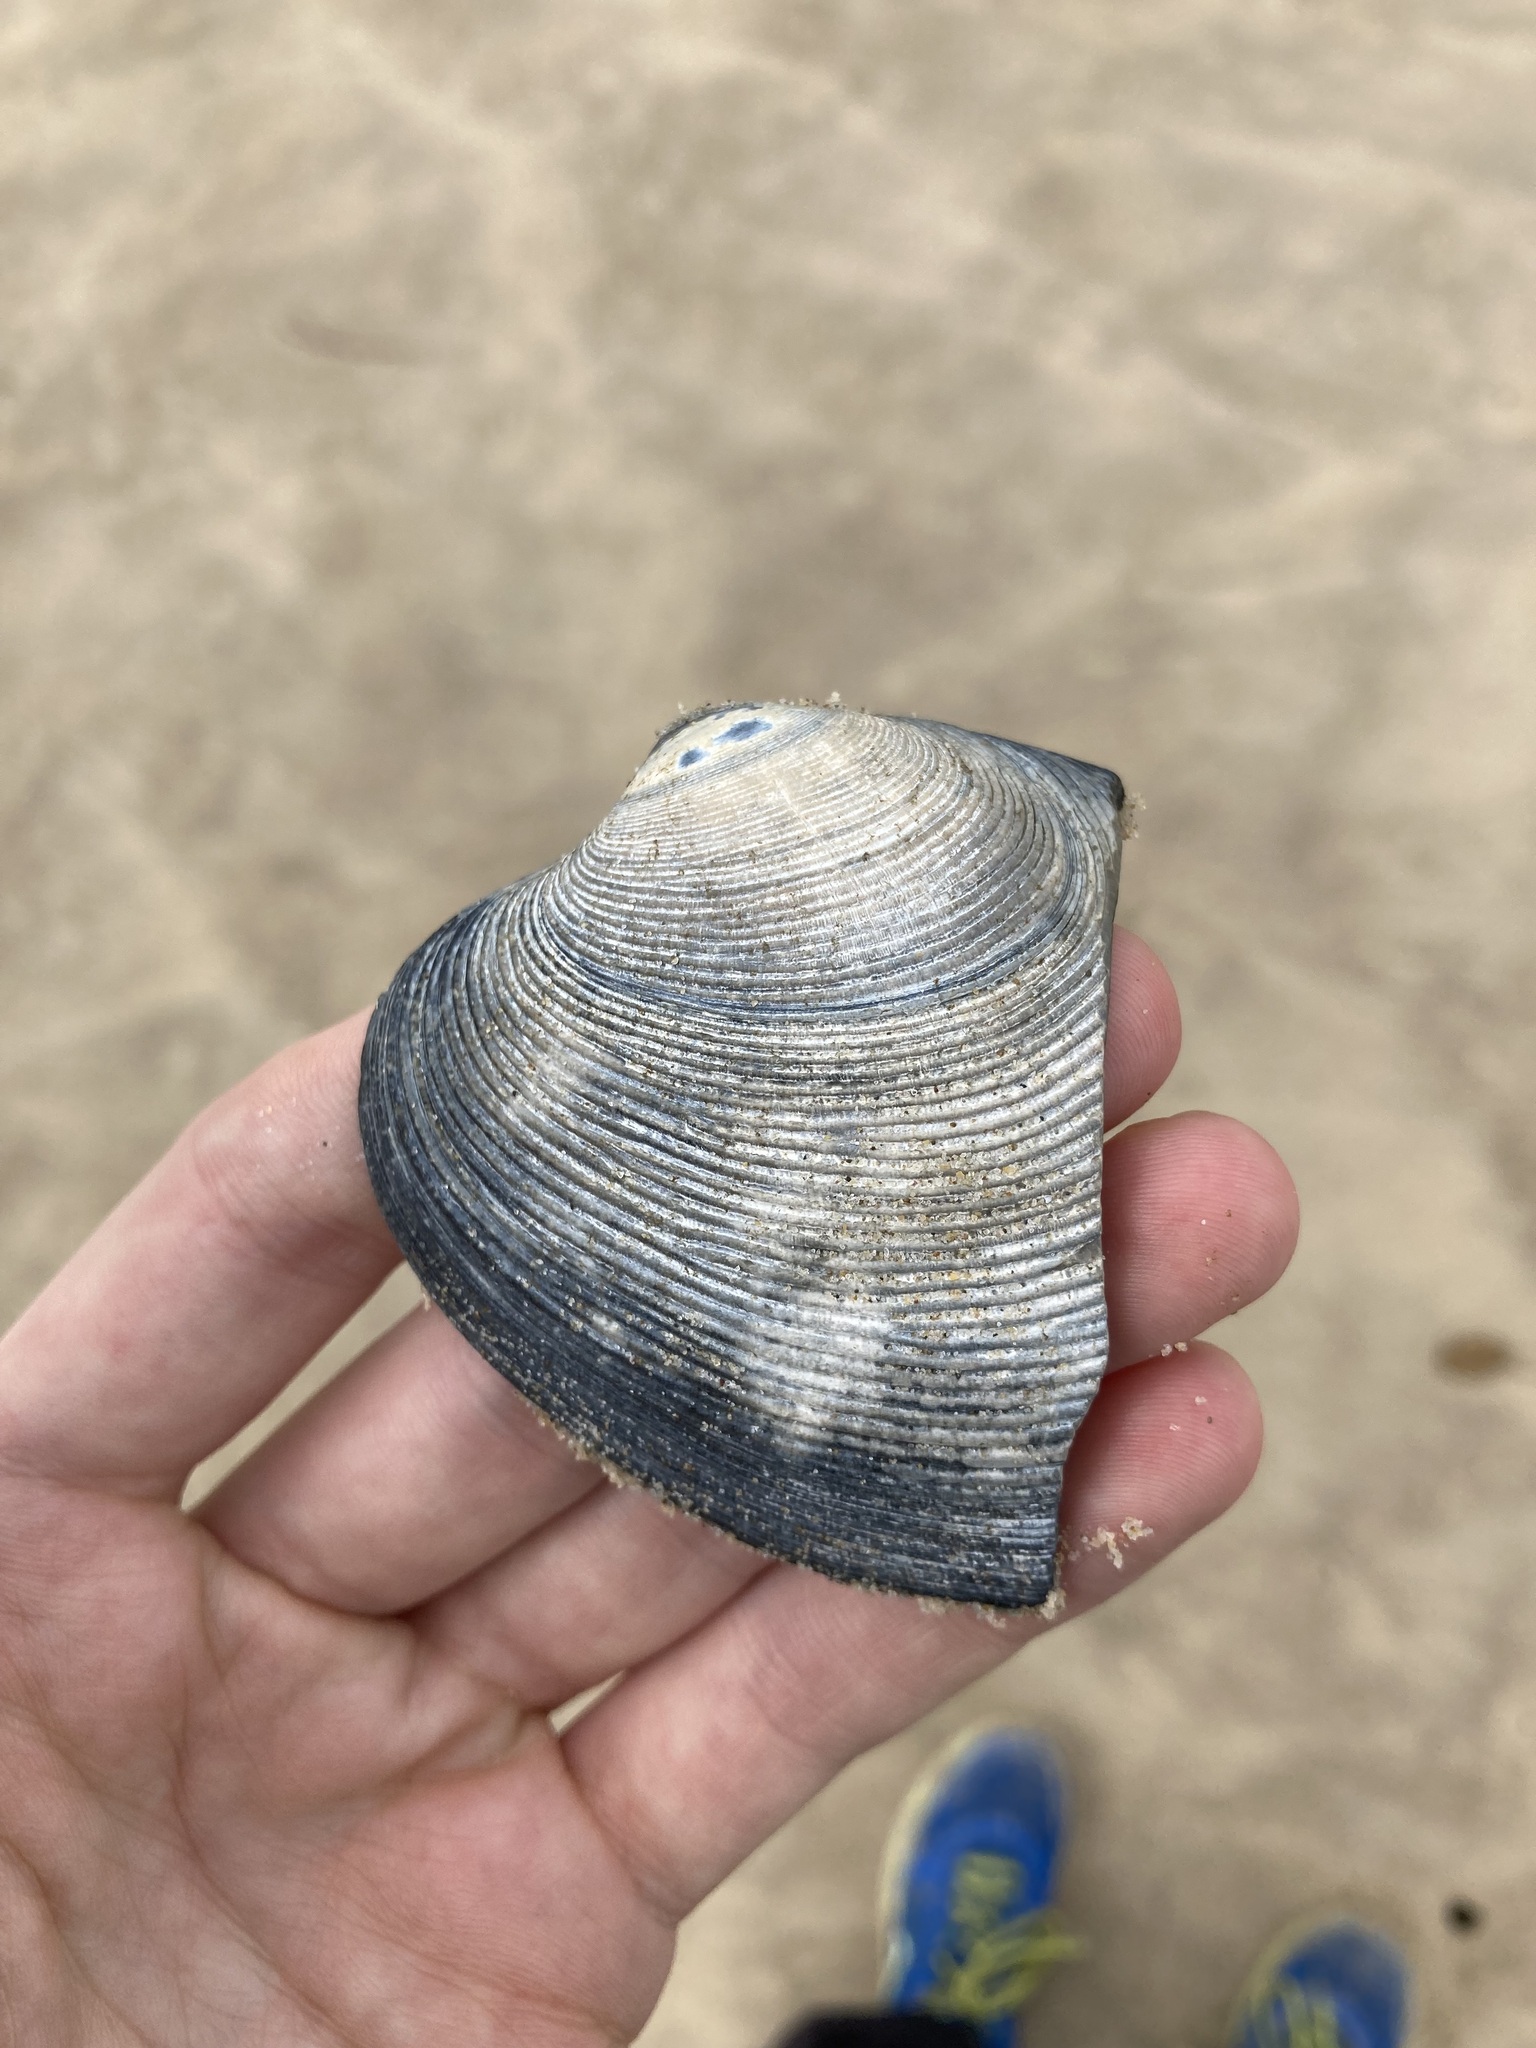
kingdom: Animalia
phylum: Mollusca
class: Bivalvia
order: Venerida
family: Veneridae
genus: Tapes
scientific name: Tapes conspersus
